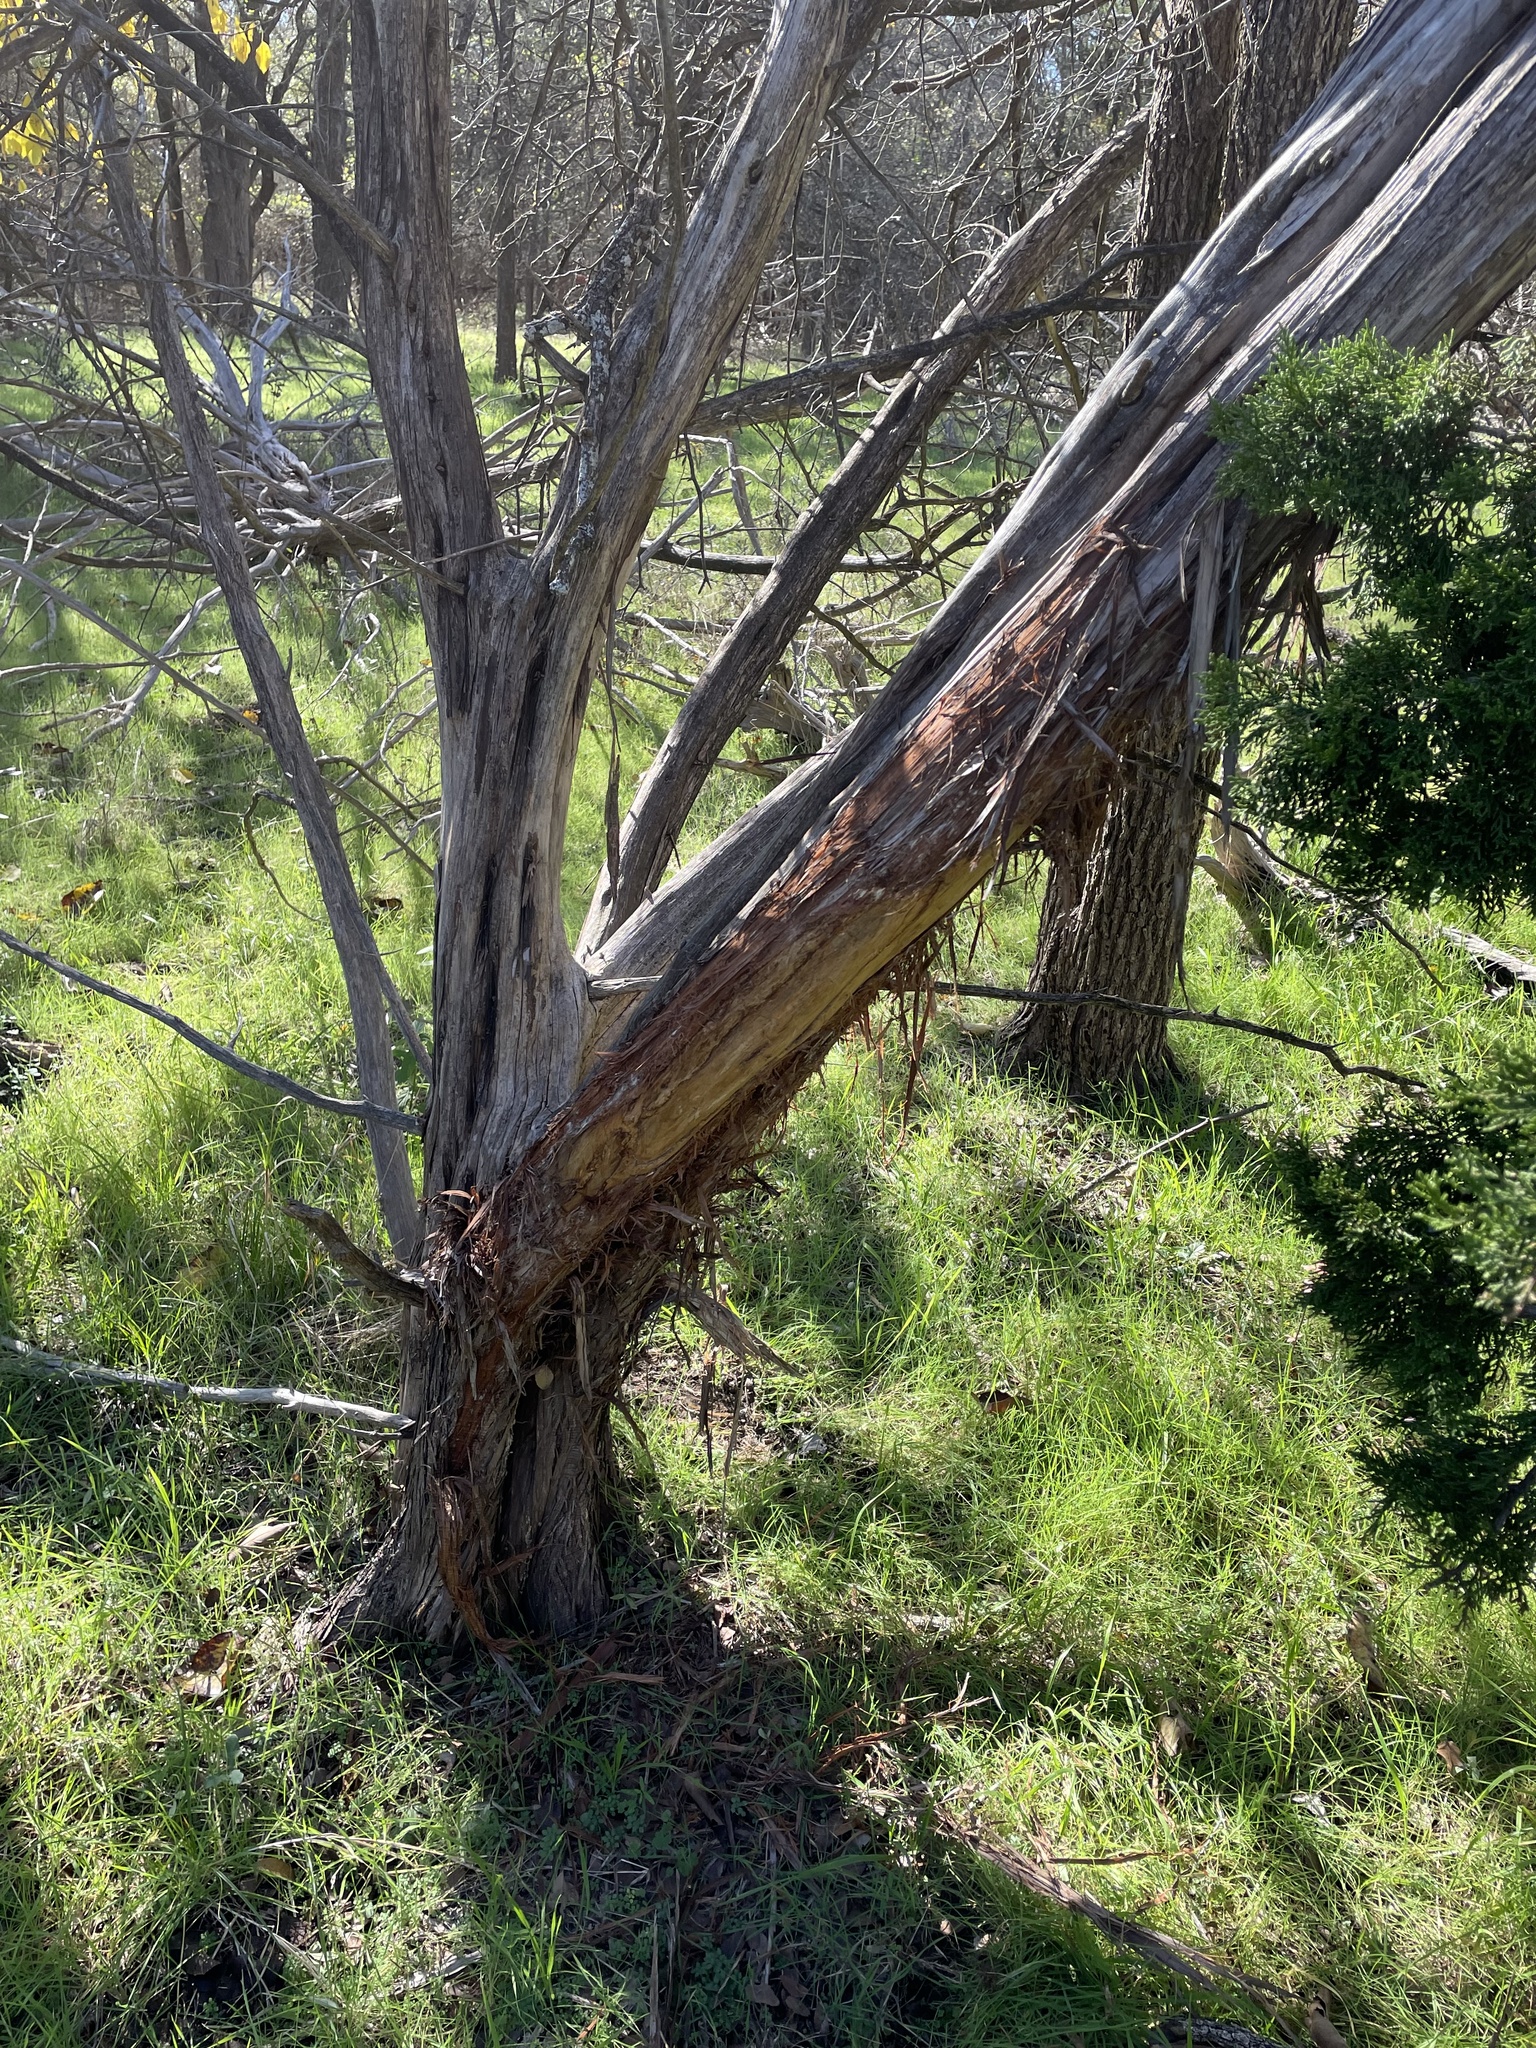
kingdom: Animalia
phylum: Chordata
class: Mammalia
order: Artiodactyla
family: Cervidae
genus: Odocoileus
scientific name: Odocoileus virginianus
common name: White-tailed deer
